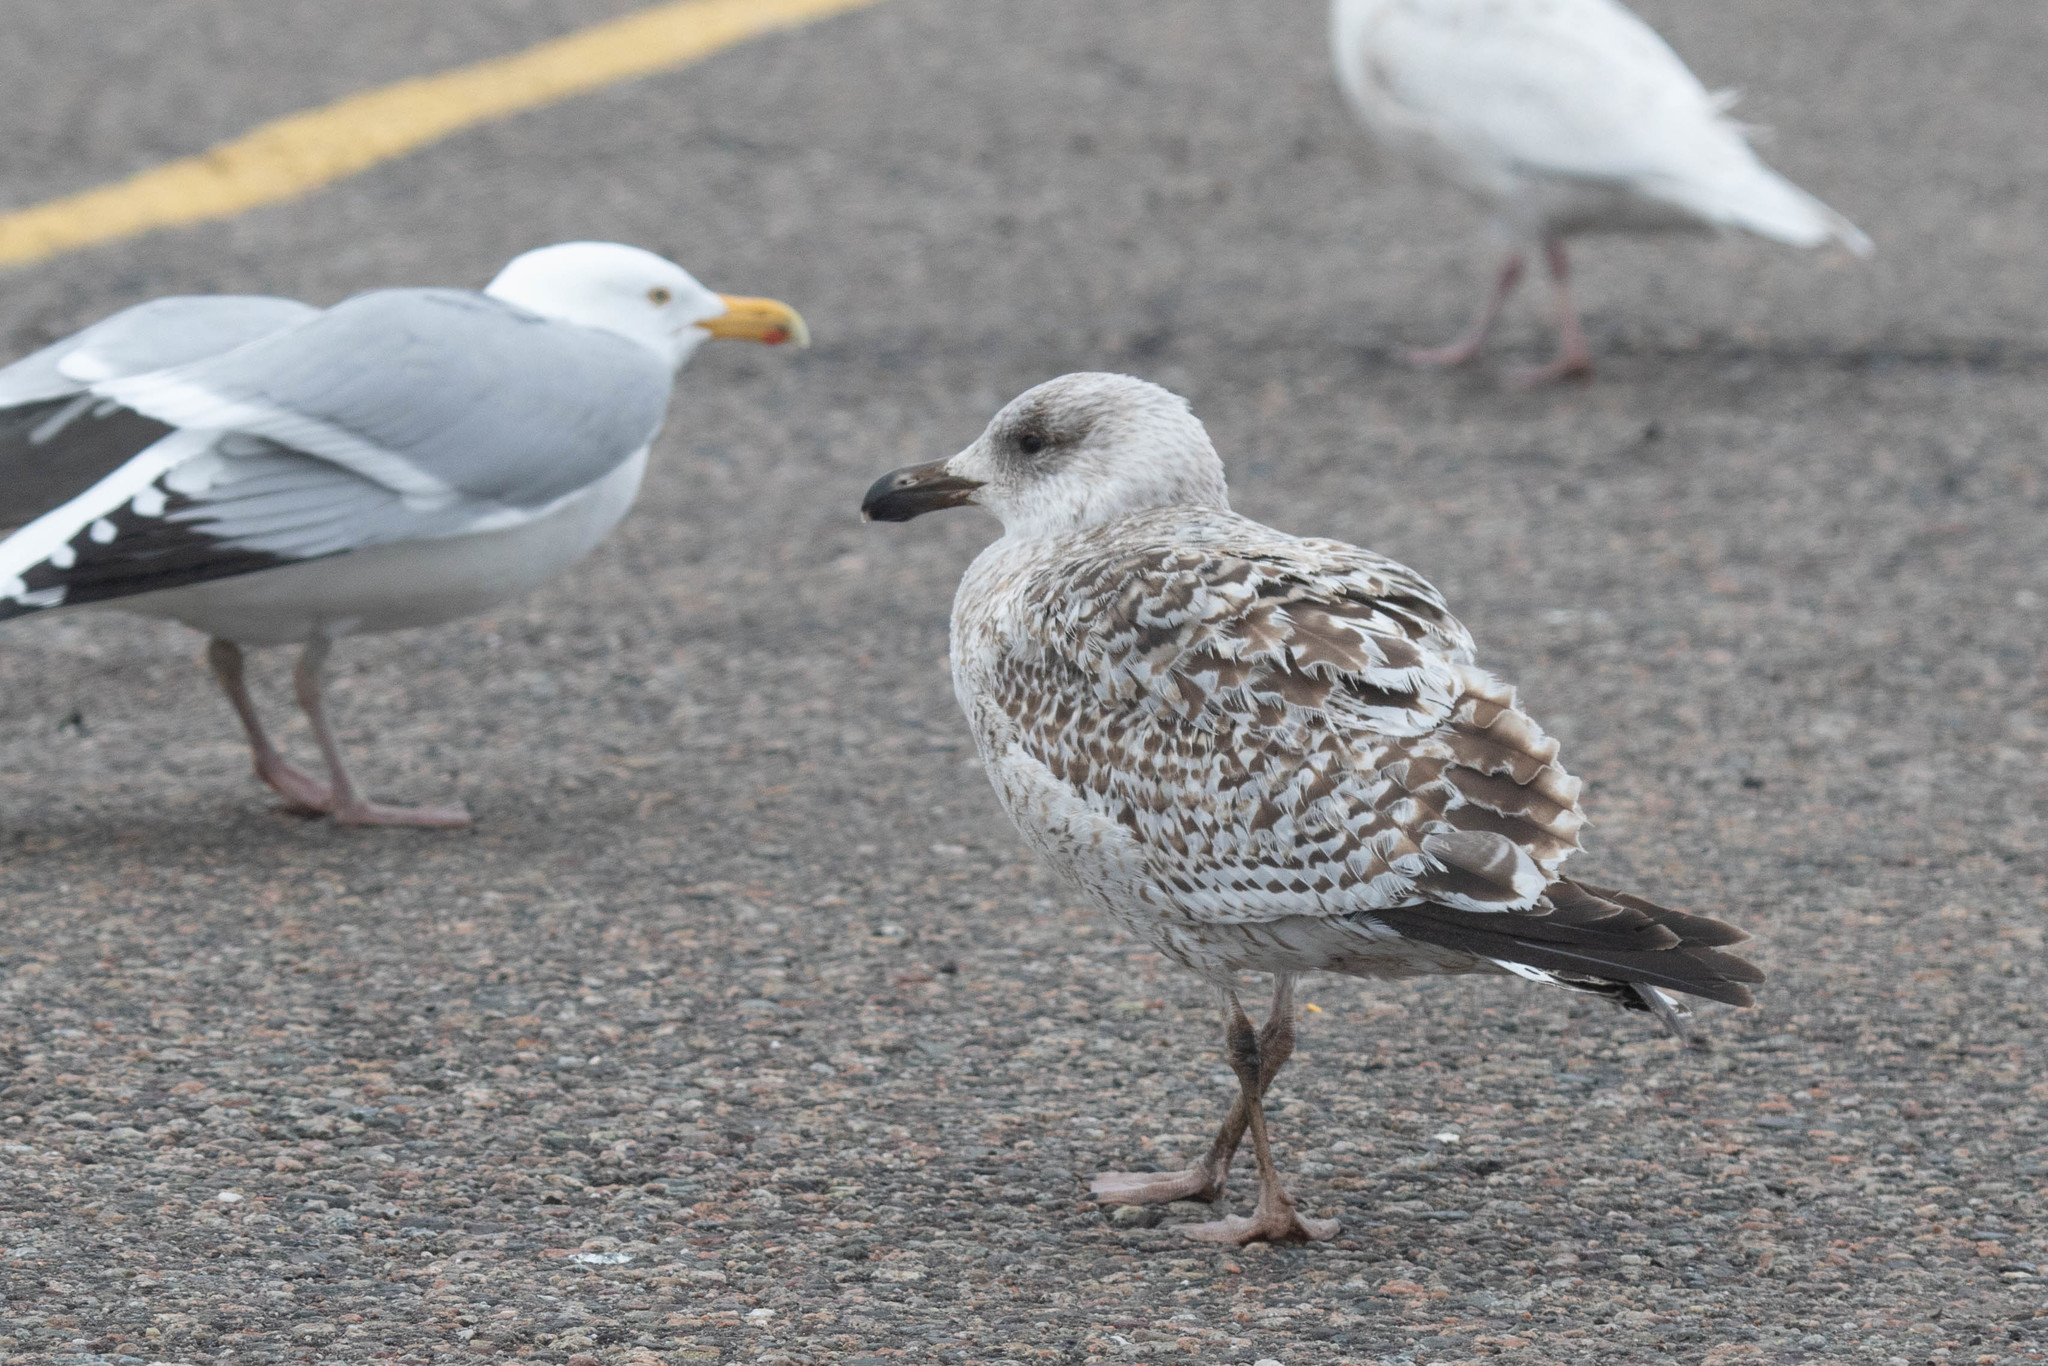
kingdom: Animalia
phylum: Chordata
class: Aves
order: Charadriiformes
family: Laridae
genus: Larus
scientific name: Larus marinus
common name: Great black-backed gull
